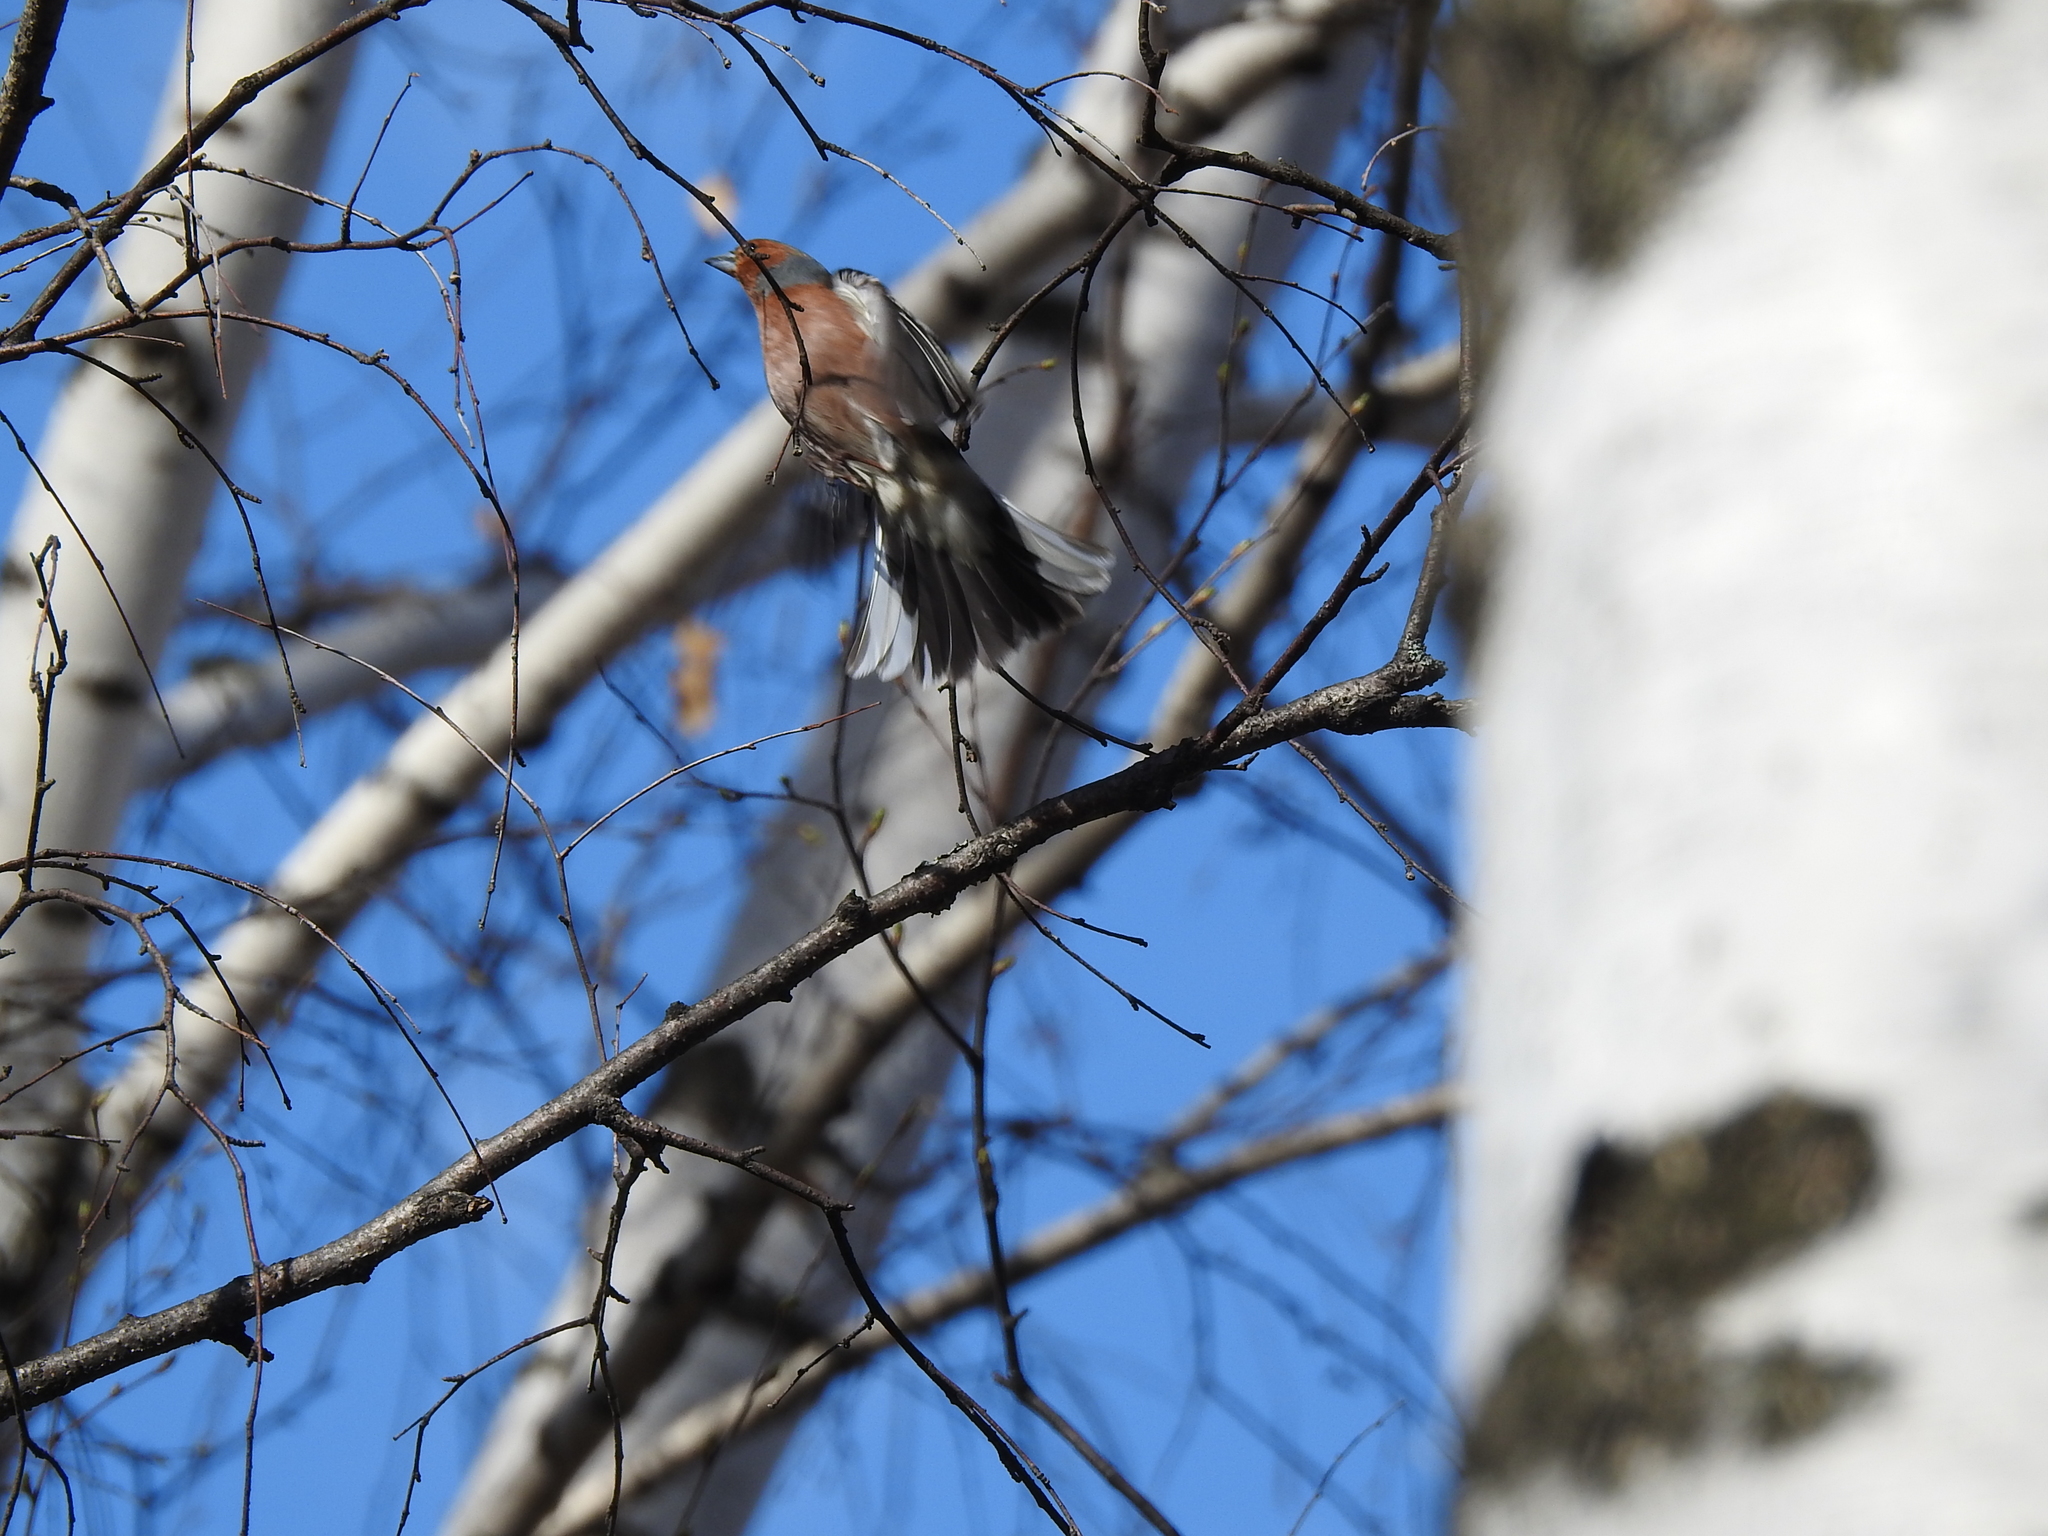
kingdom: Animalia
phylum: Chordata
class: Aves
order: Passeriformes
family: Fringillidae
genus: Fringilla
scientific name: Fringilla coelebs
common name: Common chaffinch
